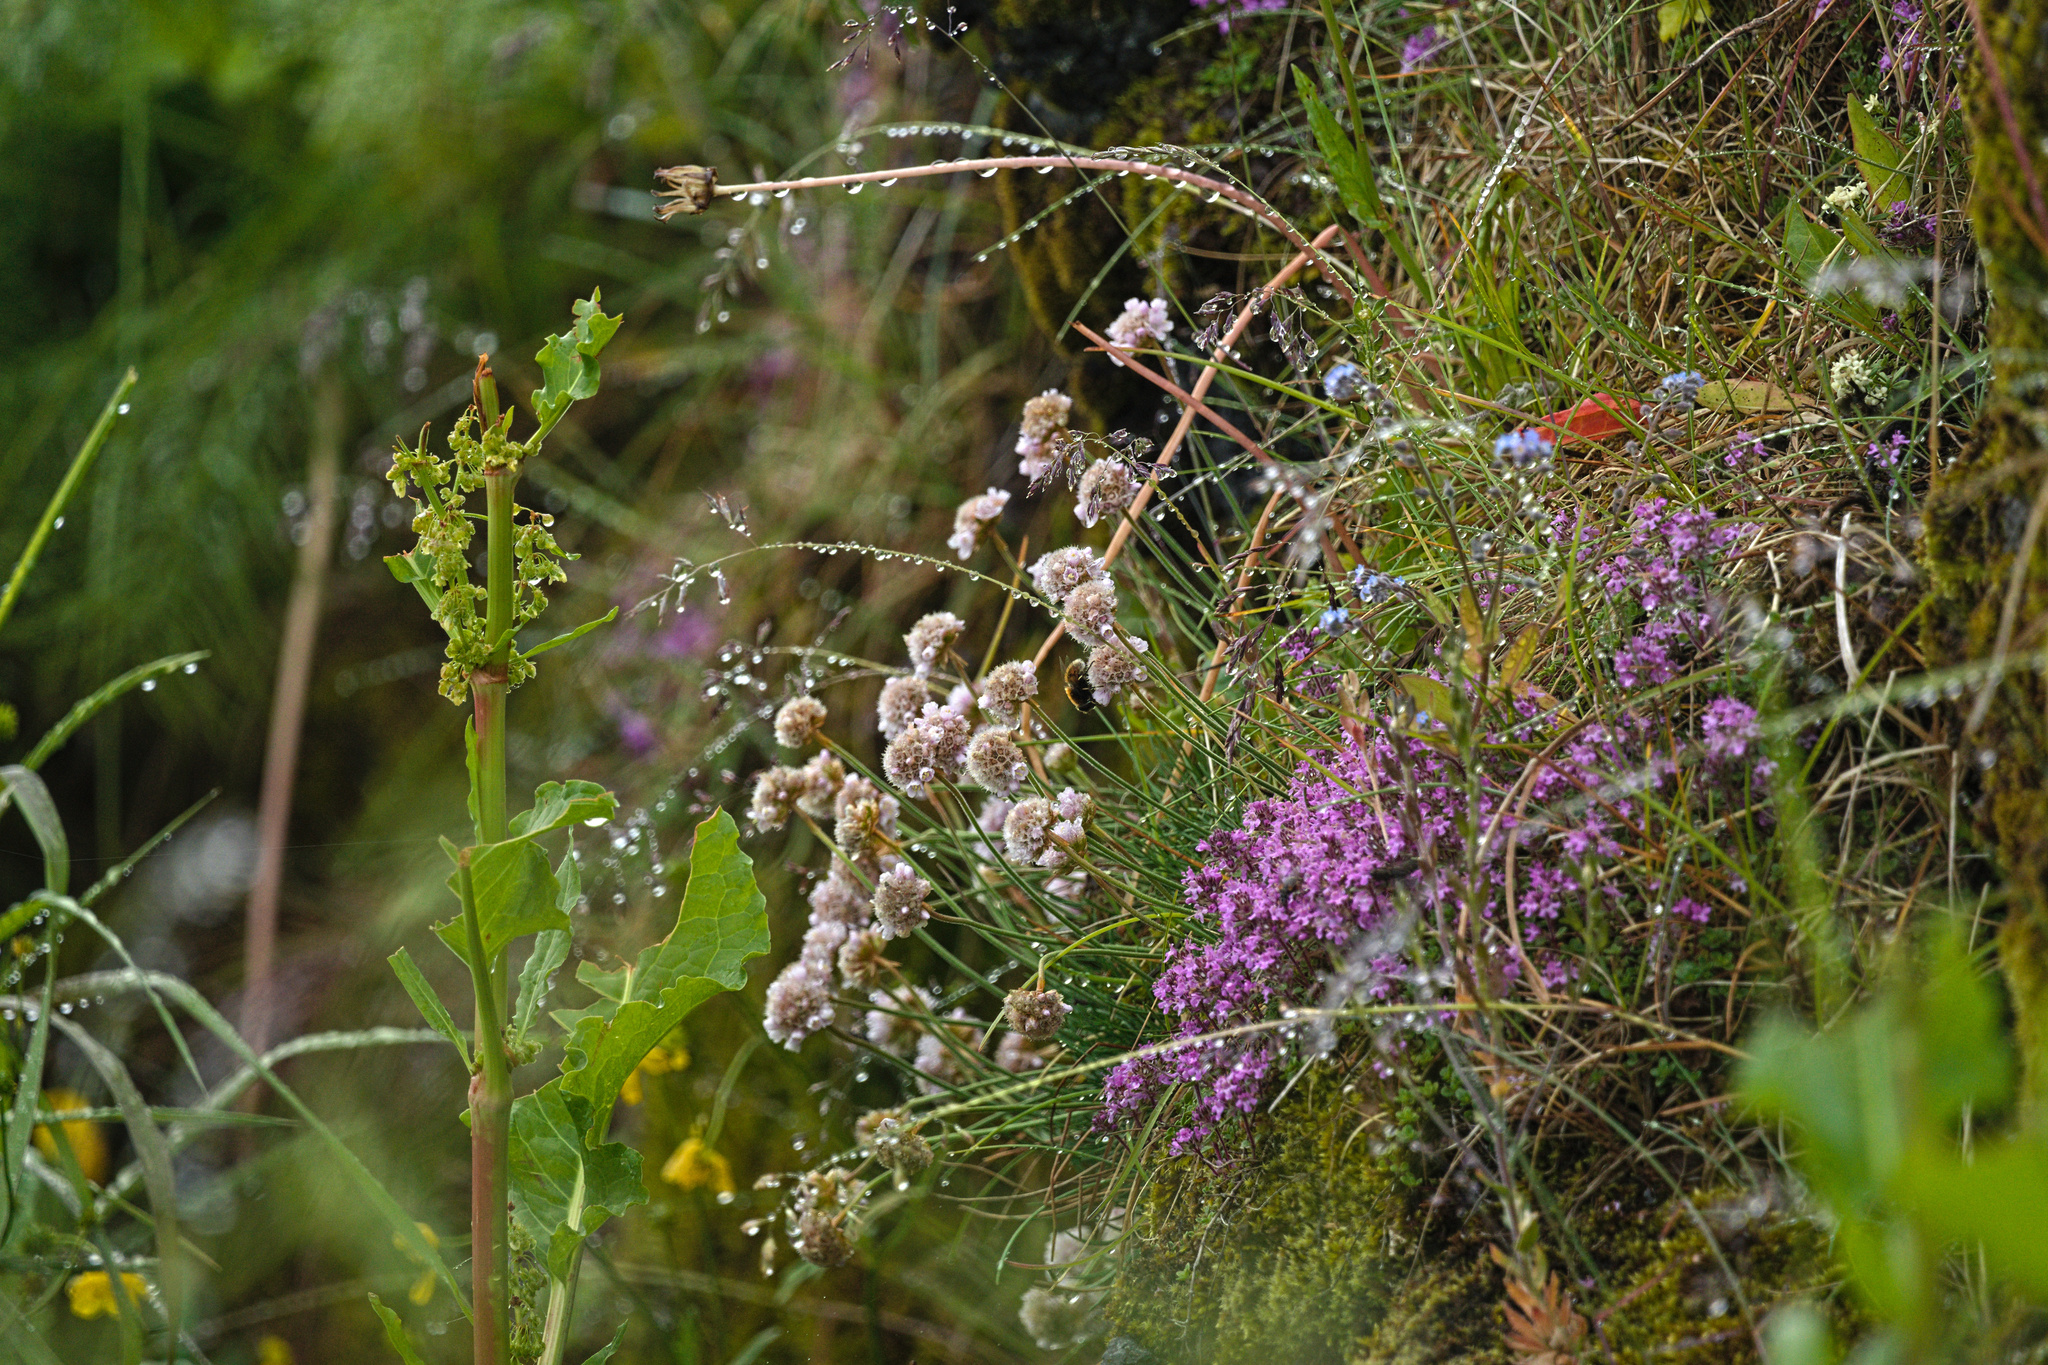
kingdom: Plantae
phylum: Tracheophyta
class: Magnoliopsida
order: Lamiales
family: Lamiaceae
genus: Thymus
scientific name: Thymus praecox
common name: Wild thyme
